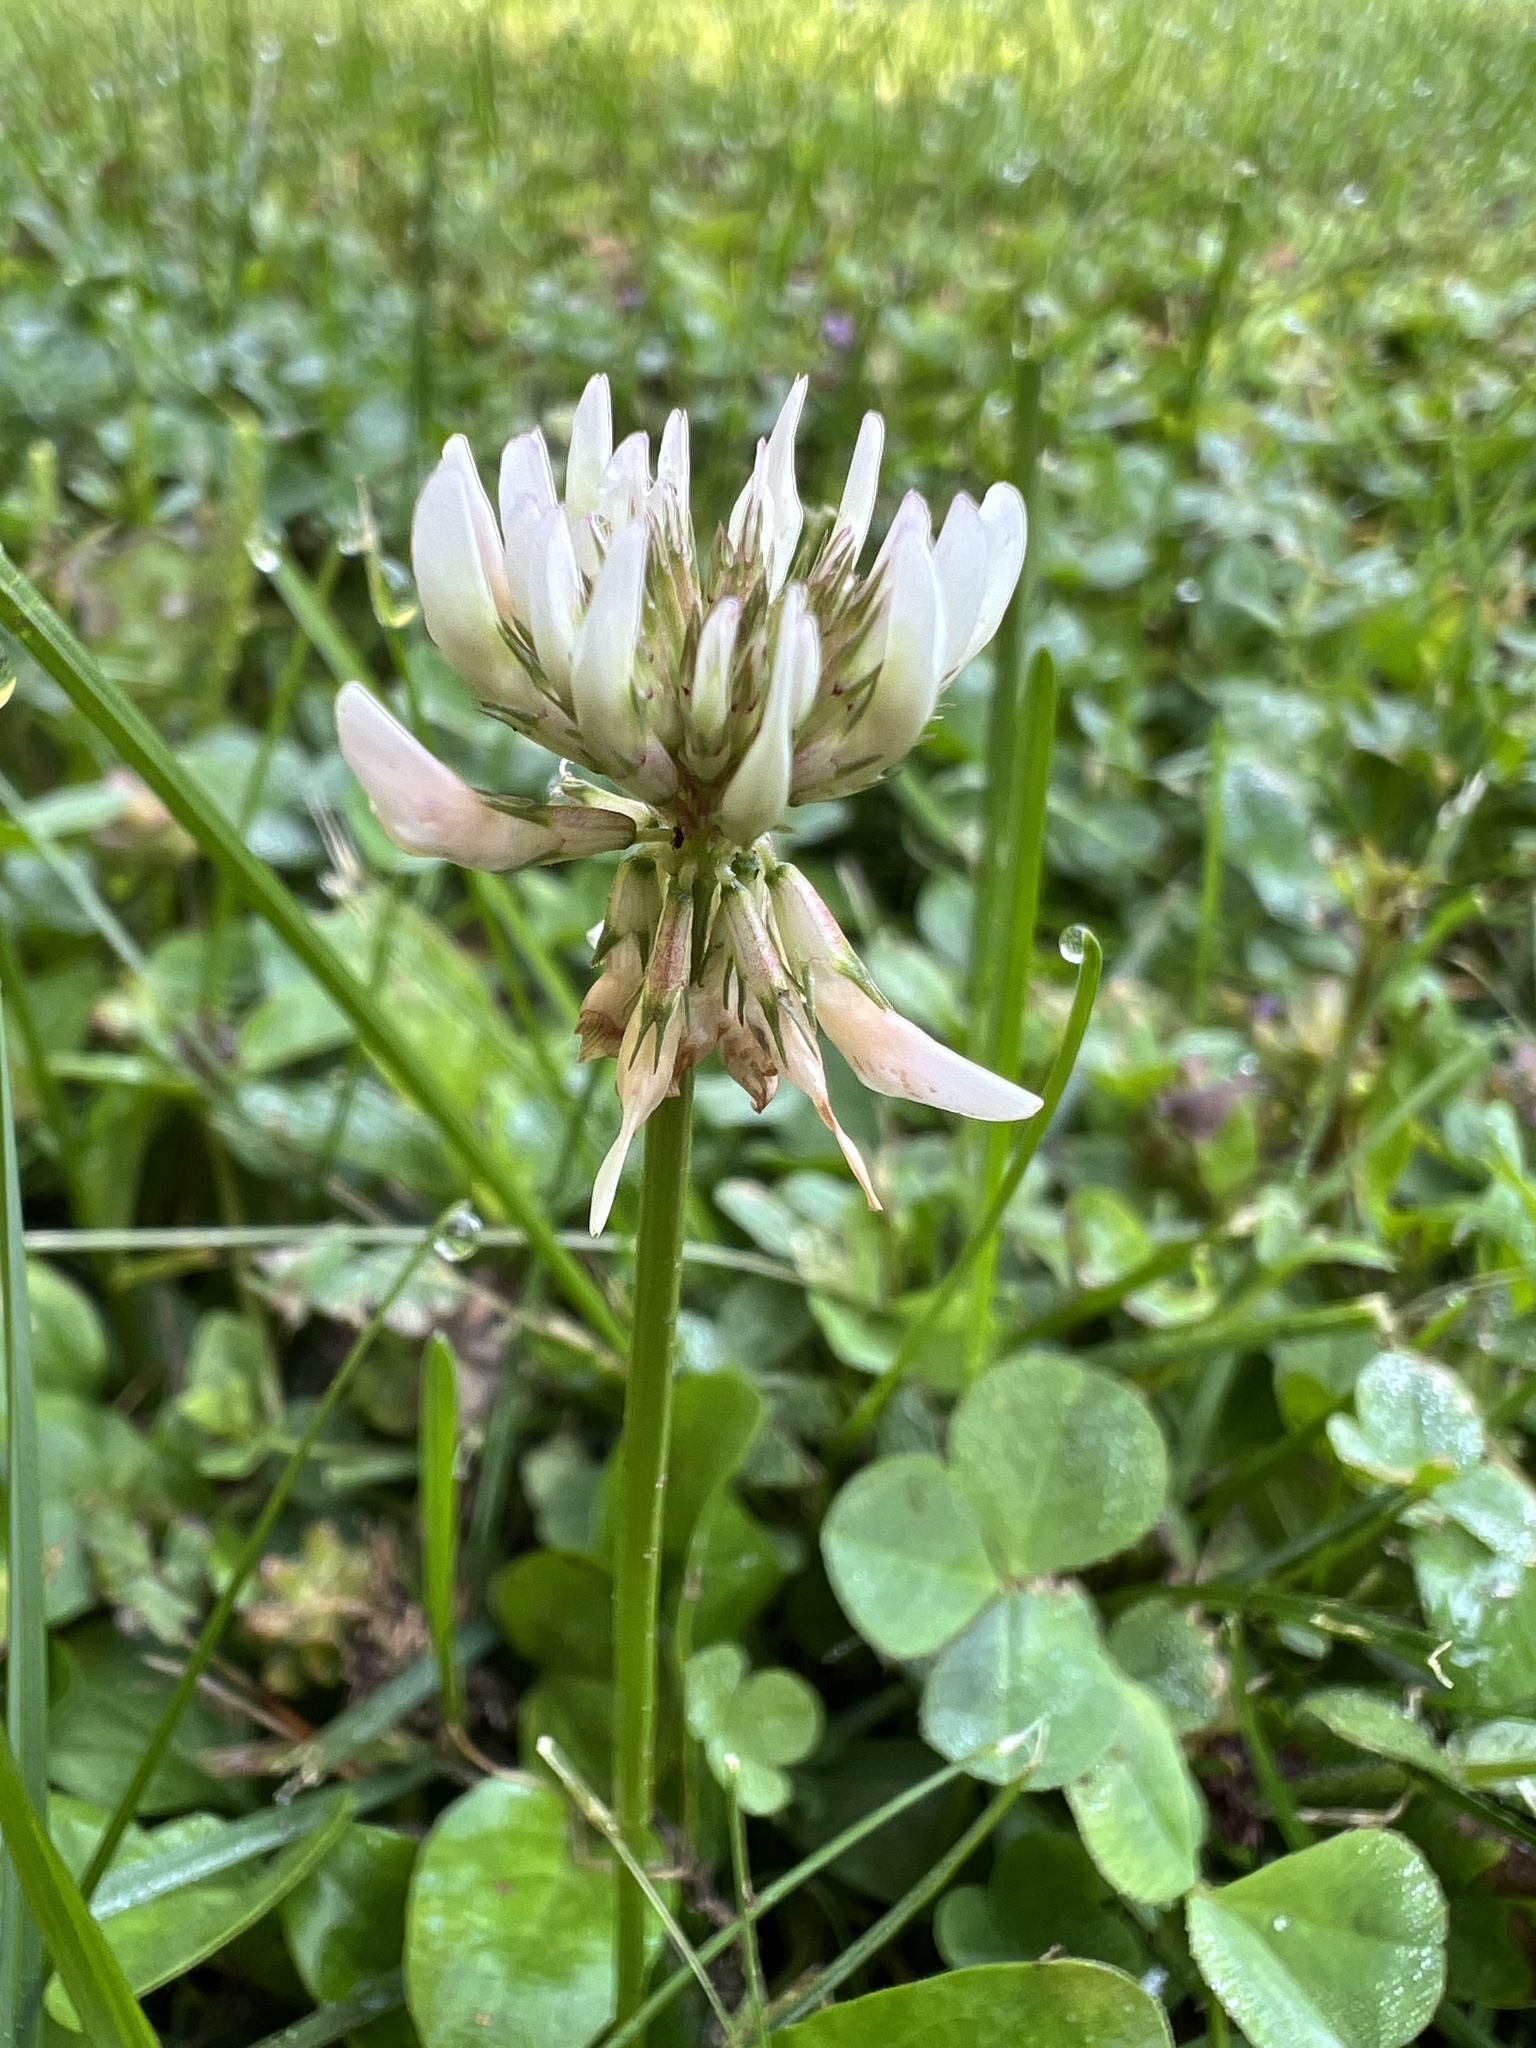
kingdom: Plantae
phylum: Tracheophyta
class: Magnoliopsida
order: Fabales
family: Fabaceae
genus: Trifolium
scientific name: Trifolium repens
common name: White clover
